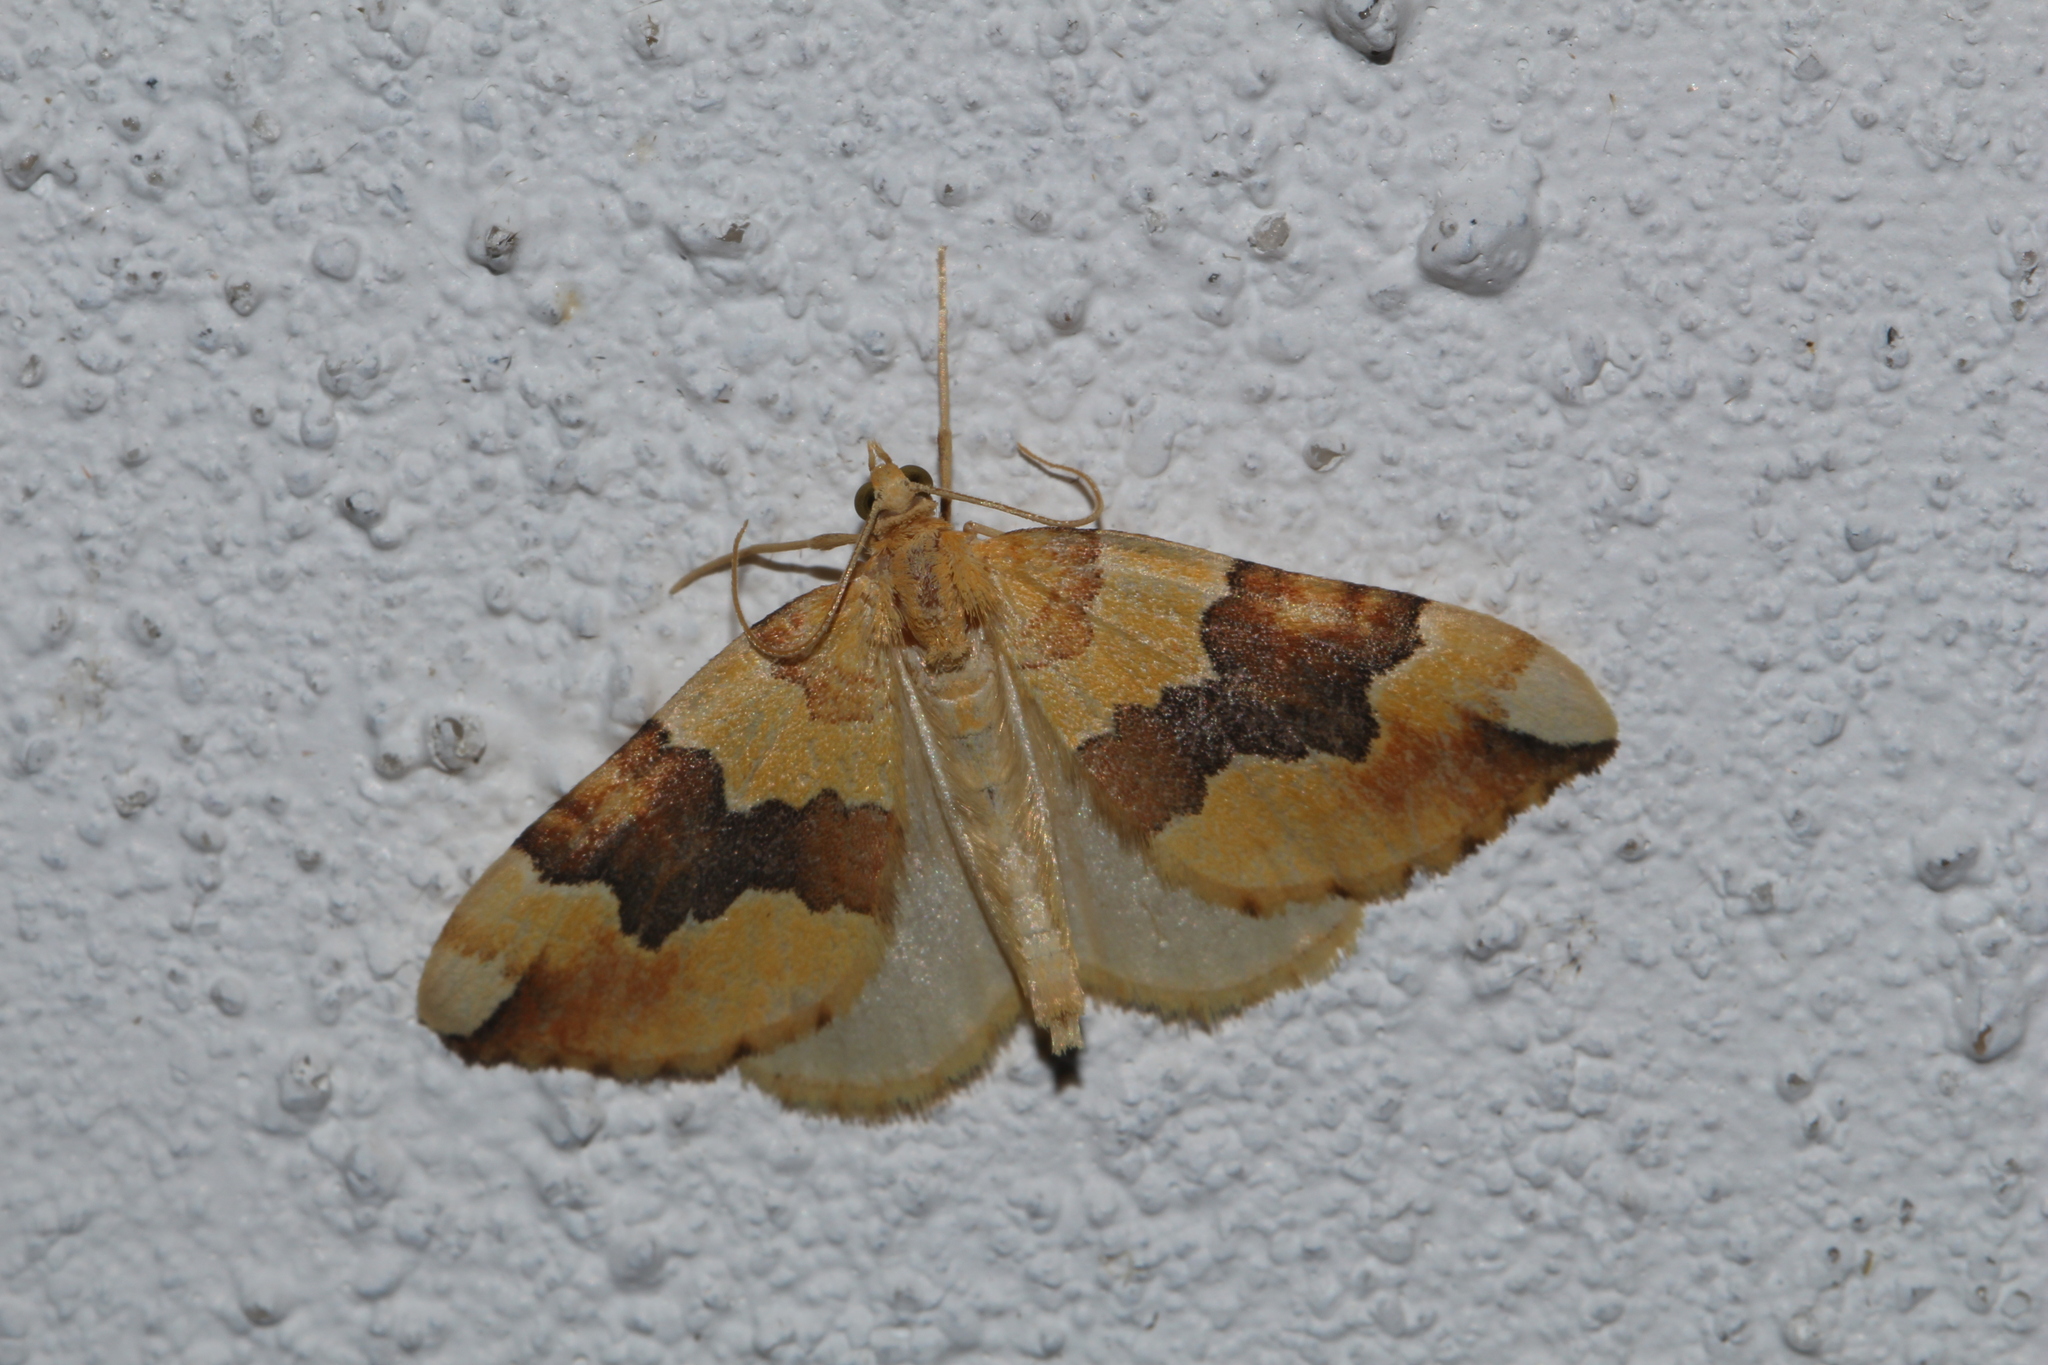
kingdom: Animalia
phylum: Arthropoda
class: Insecta
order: Lepidoptera
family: Geometridae
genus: Cidaria
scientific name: Cidaria fulvata
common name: Barred yellow
